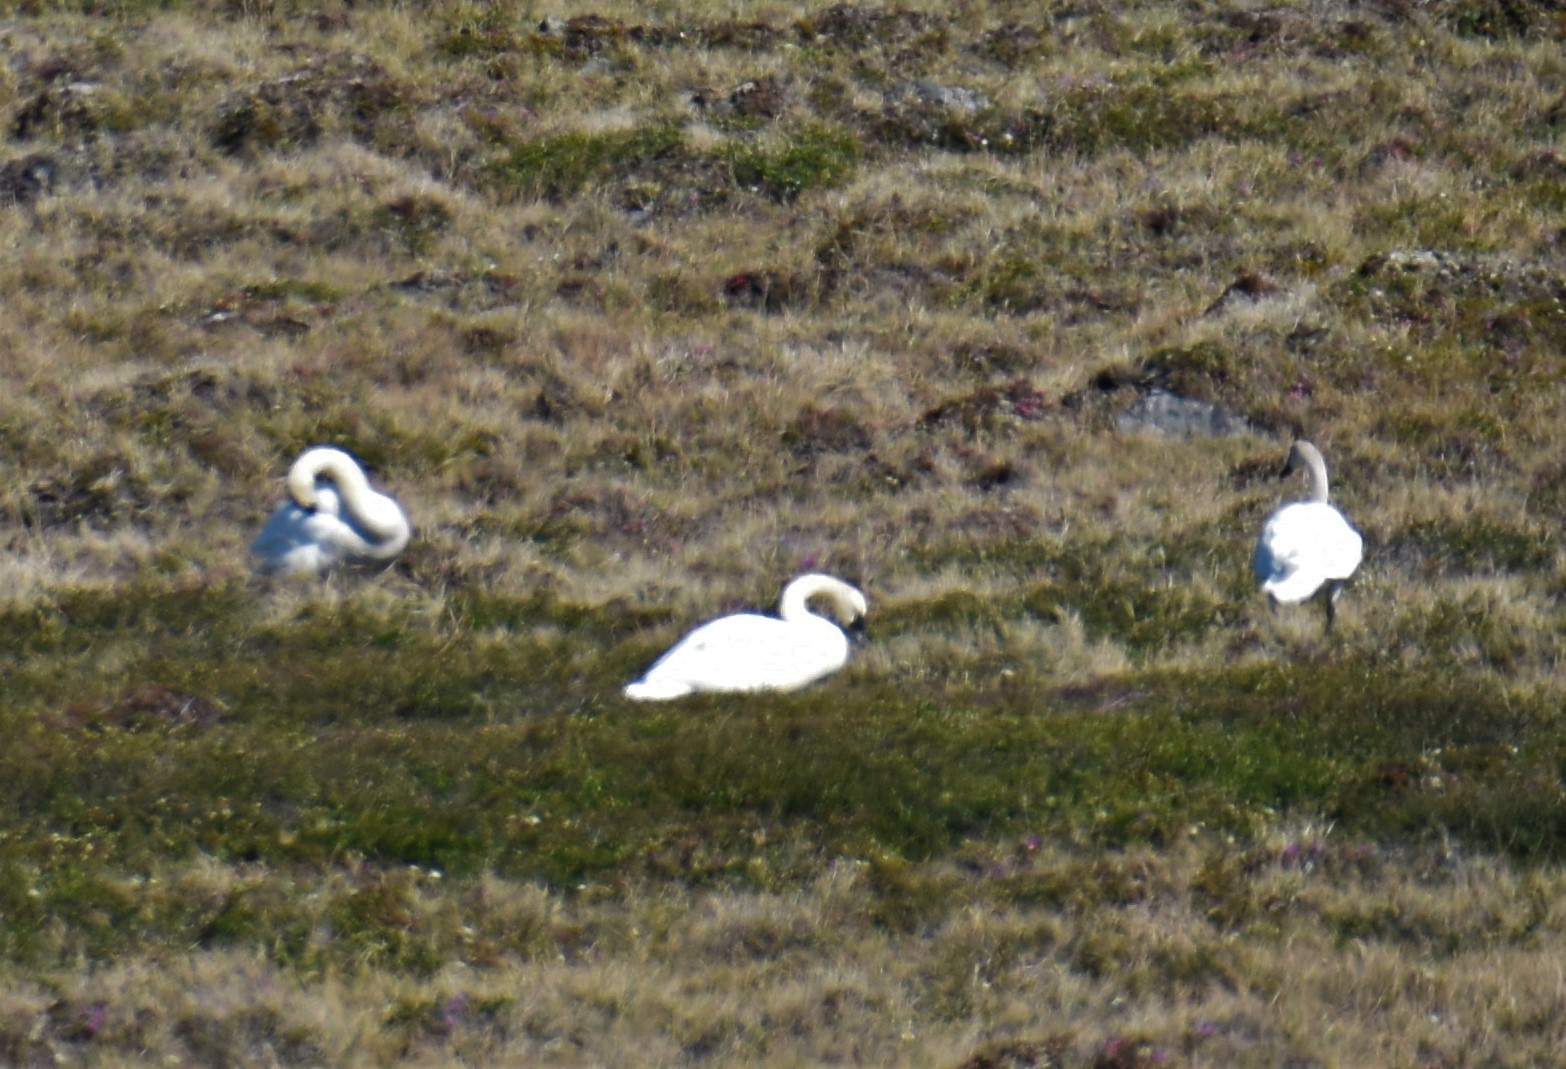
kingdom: Animalia
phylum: Chordata
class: Aves
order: Anseriformes
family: Anatidae
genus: Cygnus
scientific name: Cygnus columbianus
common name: Tundra swan
